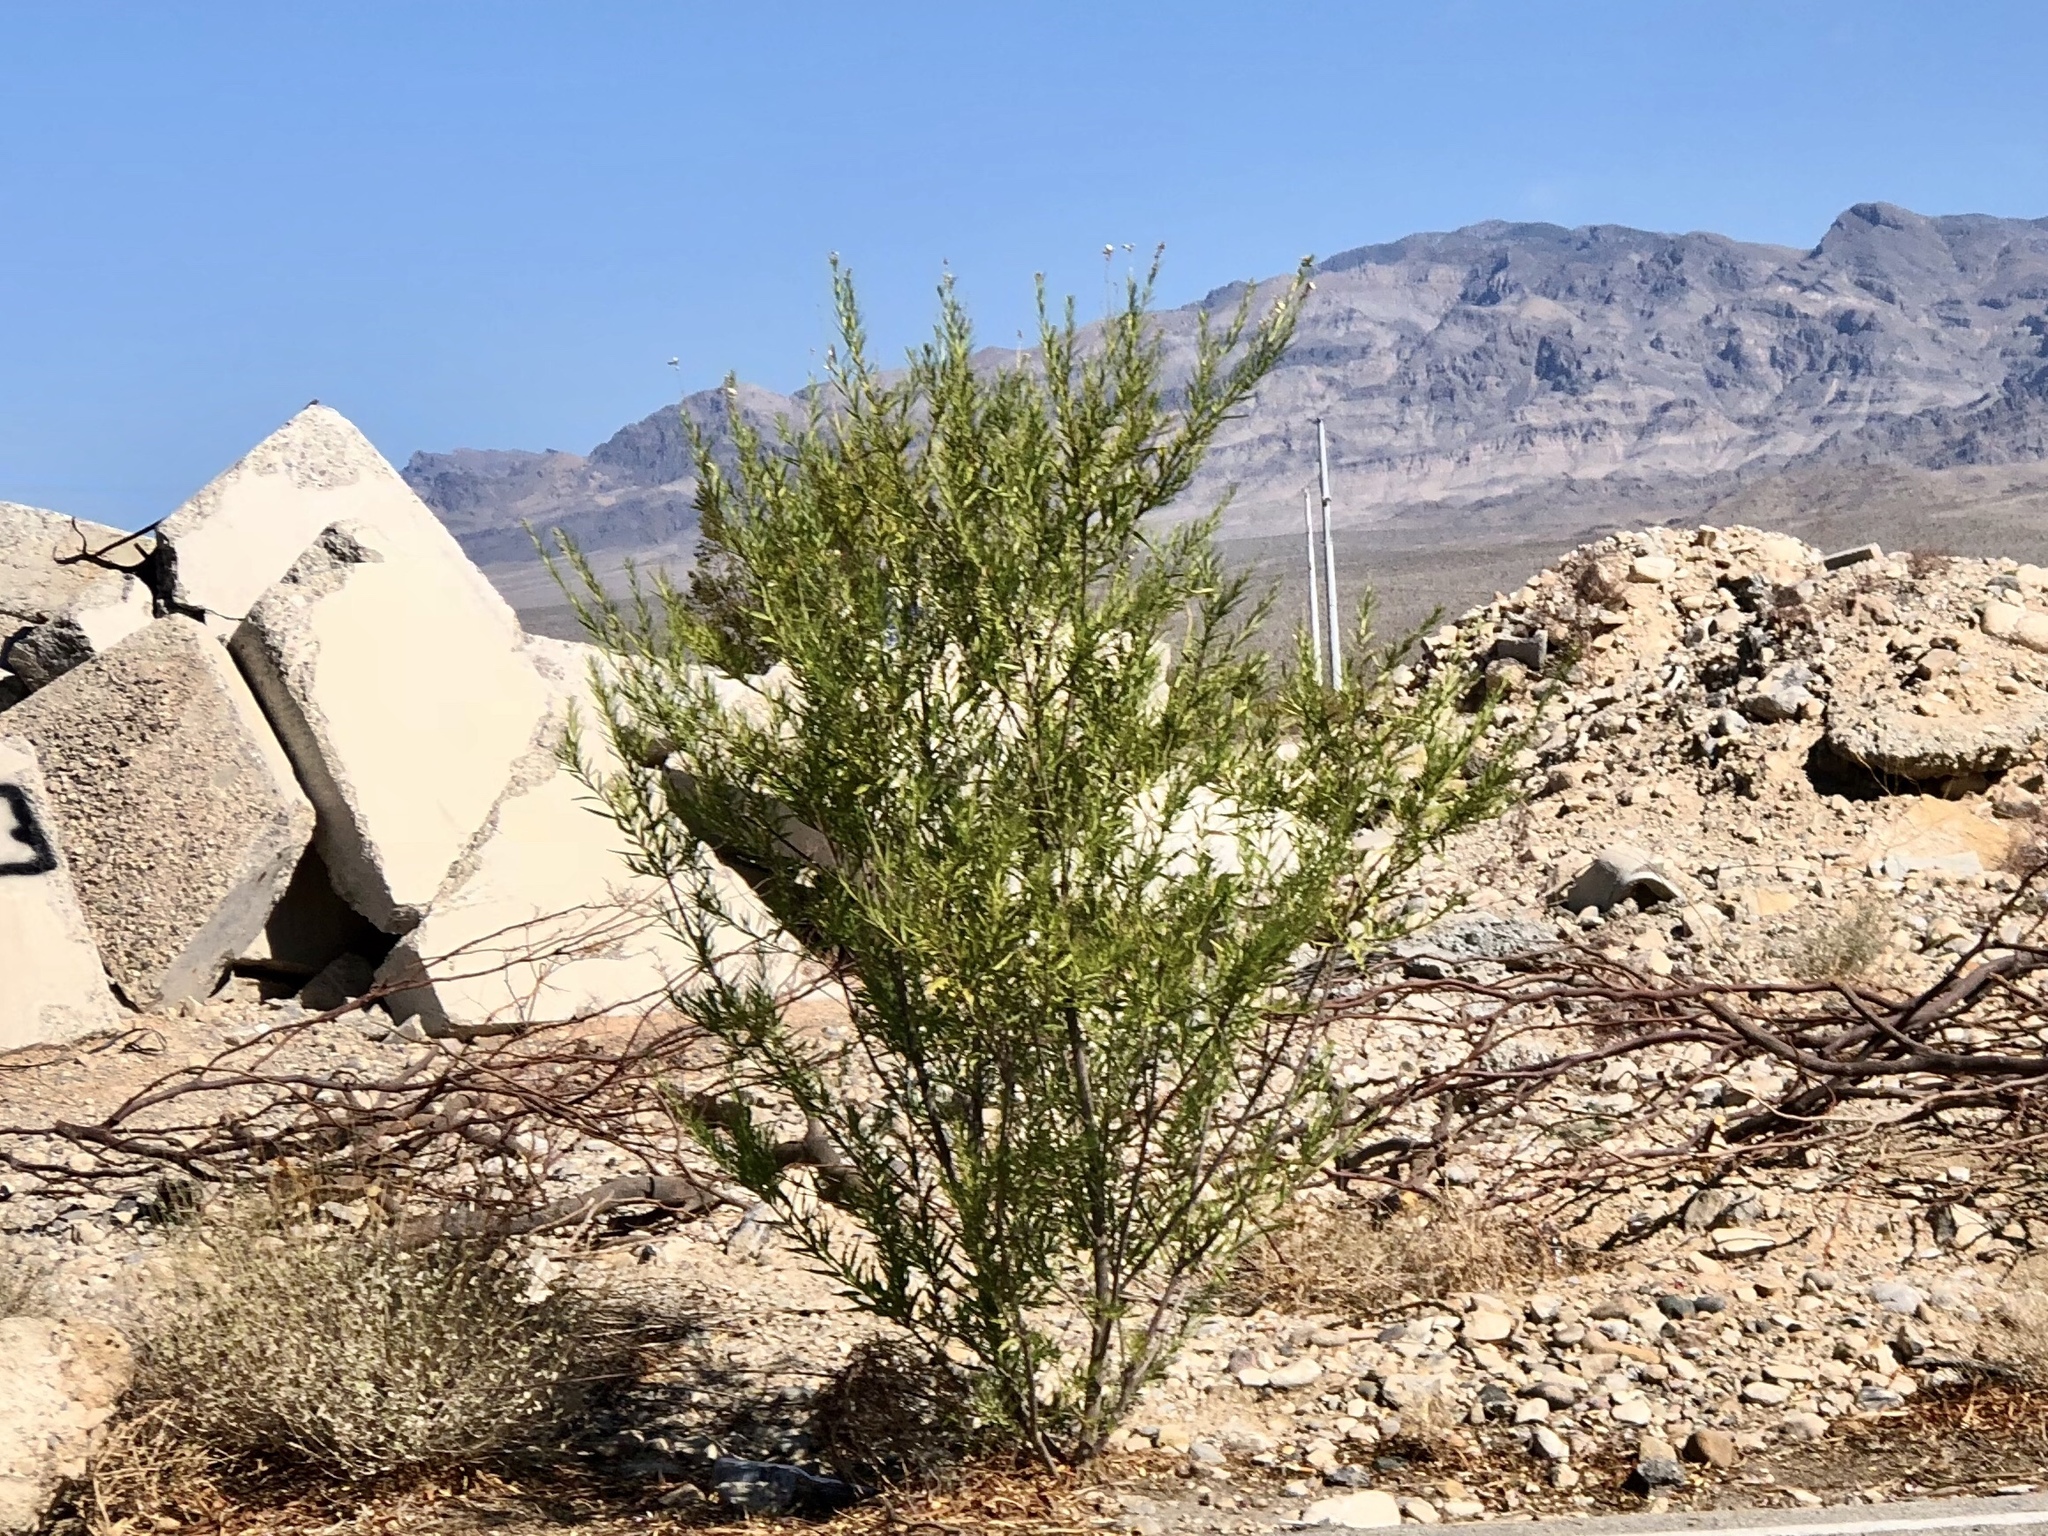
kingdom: Plantae
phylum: Tracheophyta
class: Magnoliopsida
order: Lamiales
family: Bignoniaceae
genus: Chilopsis
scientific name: Chilopsis linearis
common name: Desert-willow
